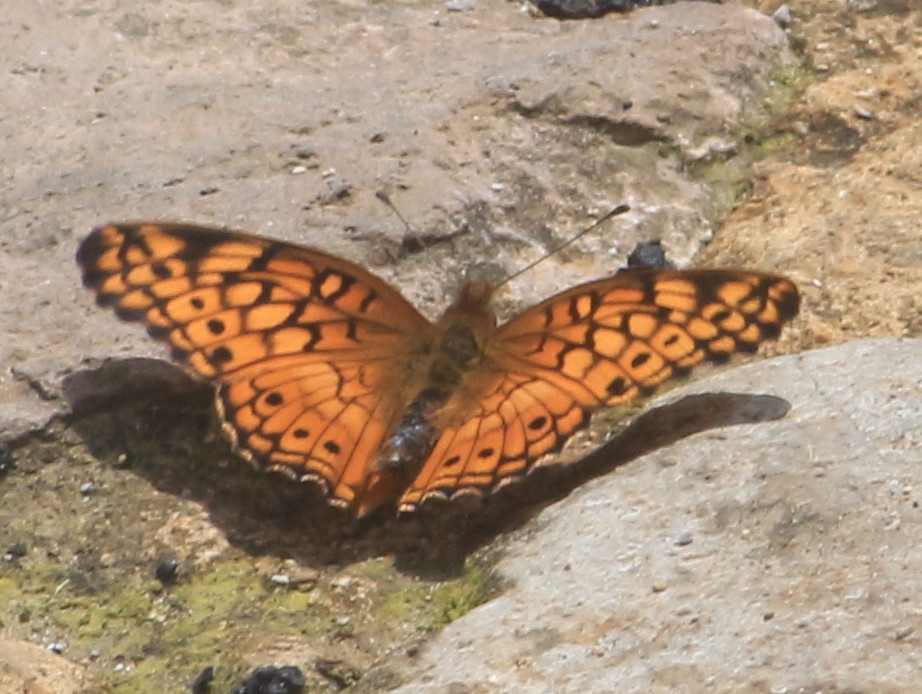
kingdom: Animalia
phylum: Arthropoda
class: Insecta
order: Lepidoptera
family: Nymphalidae
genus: Euptoieta
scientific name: Euptoieta claudia
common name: Variegated fritillary
